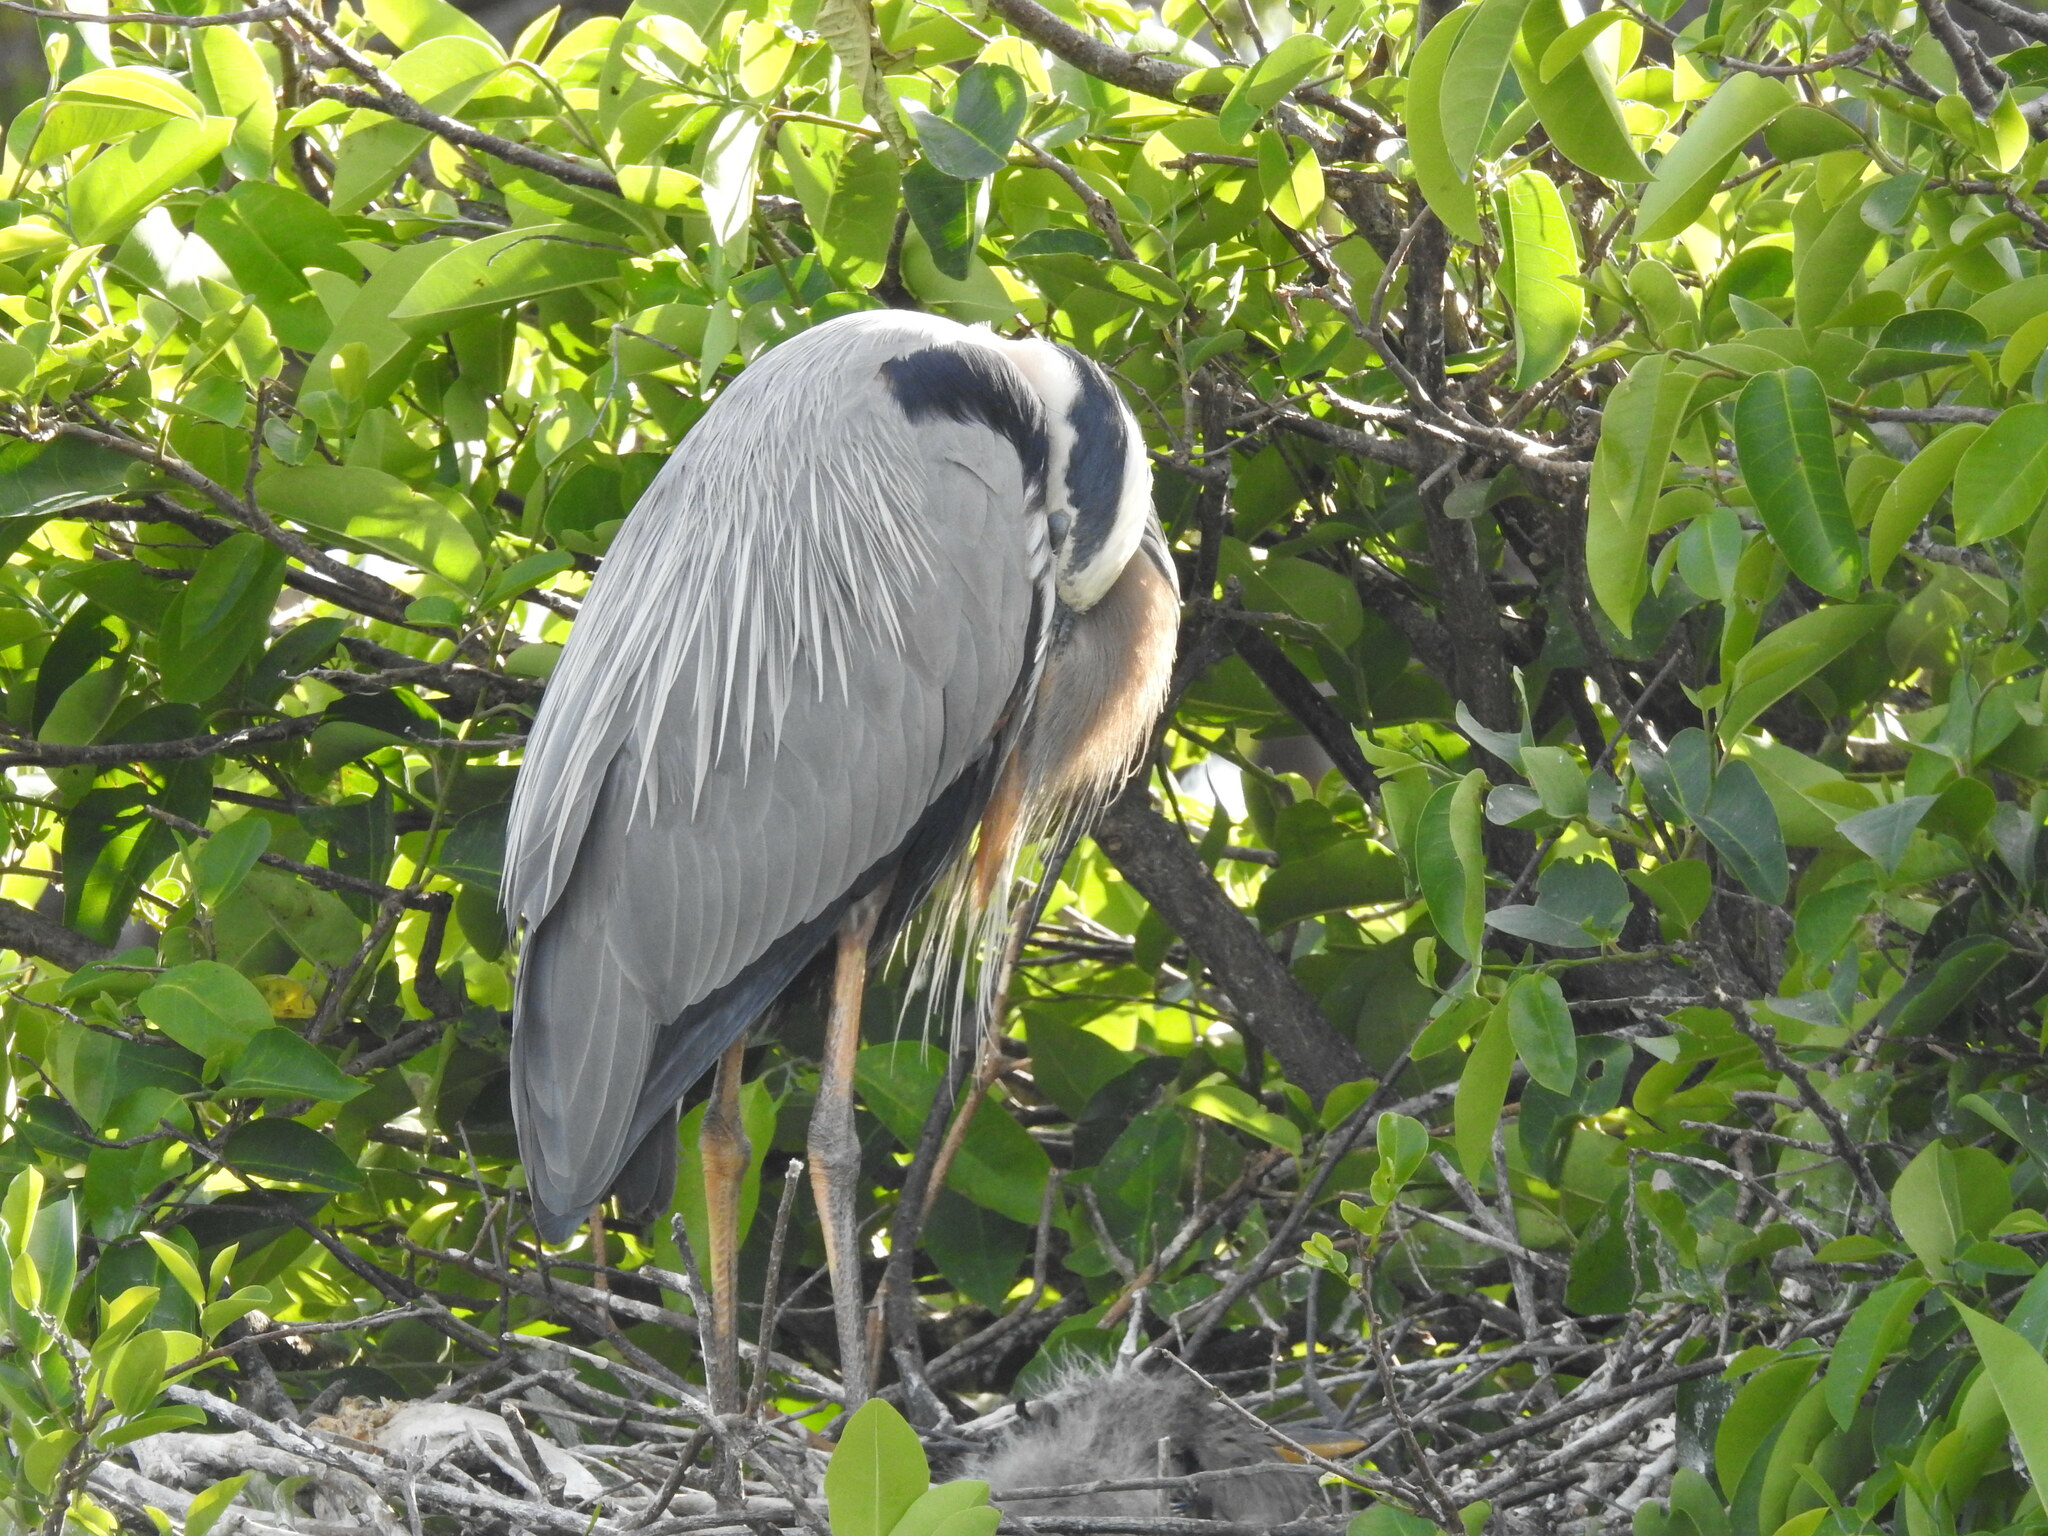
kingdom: Animalia
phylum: Chordata
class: Aves
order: Pelecaniformes
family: Ardeidae
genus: Ardea
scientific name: Ardea herodias
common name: Great blue heron
